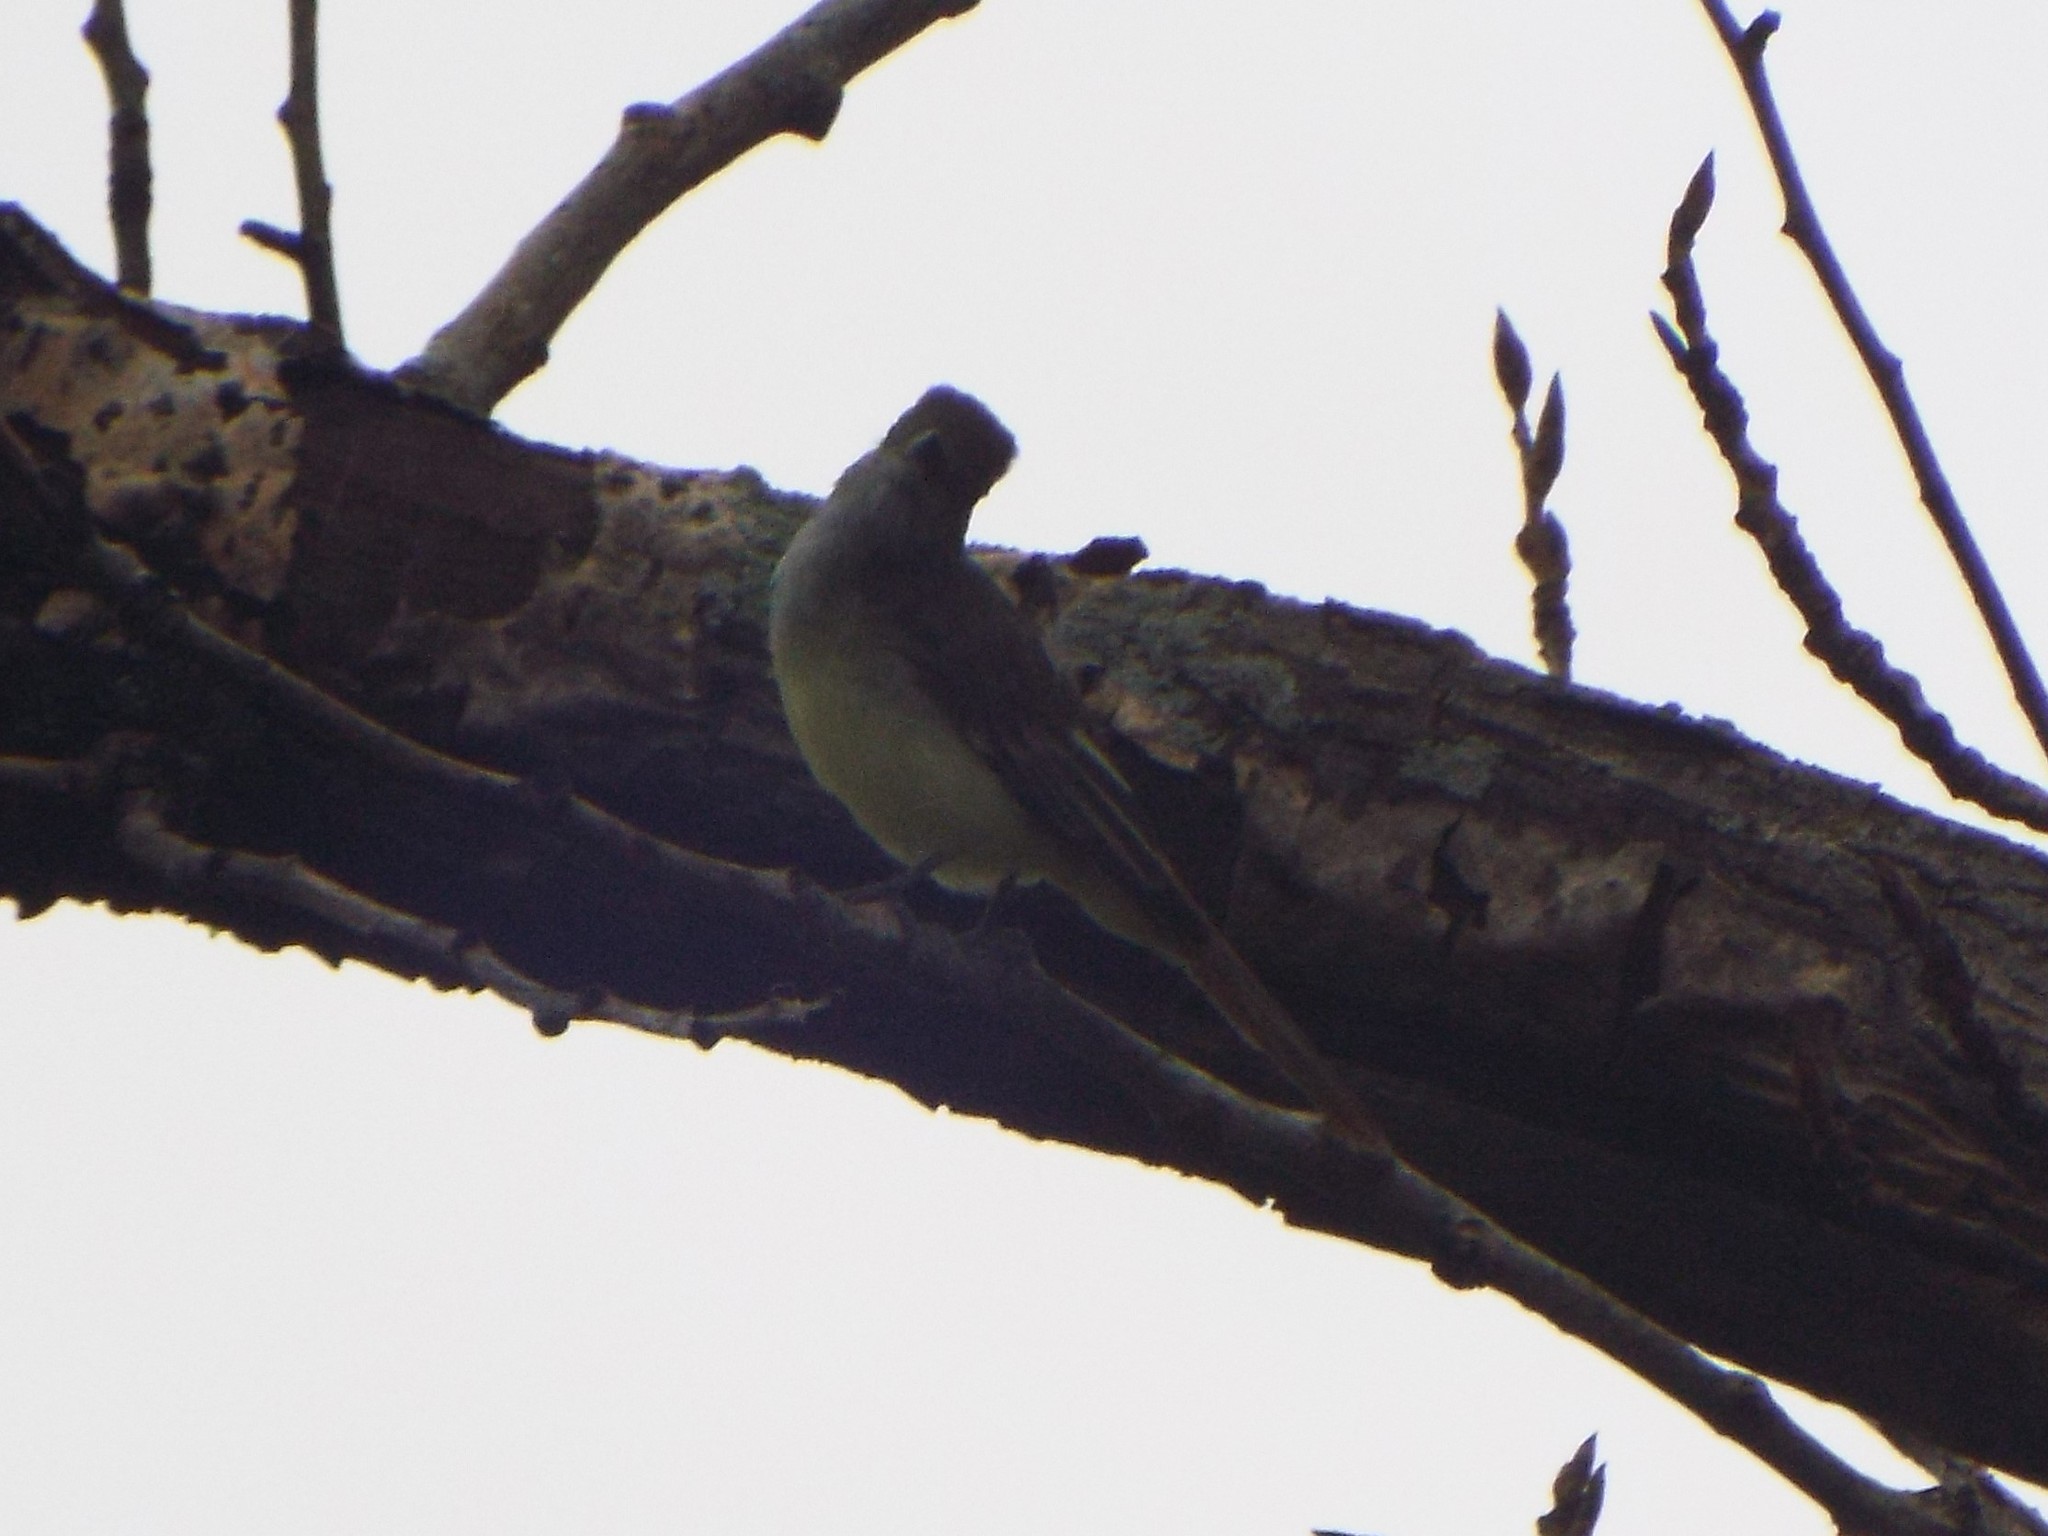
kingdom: Animalia
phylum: Chordata
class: Aves
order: Passeriformes
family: Tyrannidae
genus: Myiarchus
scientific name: Myiarchus crinitus
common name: Great crested flycatcher
